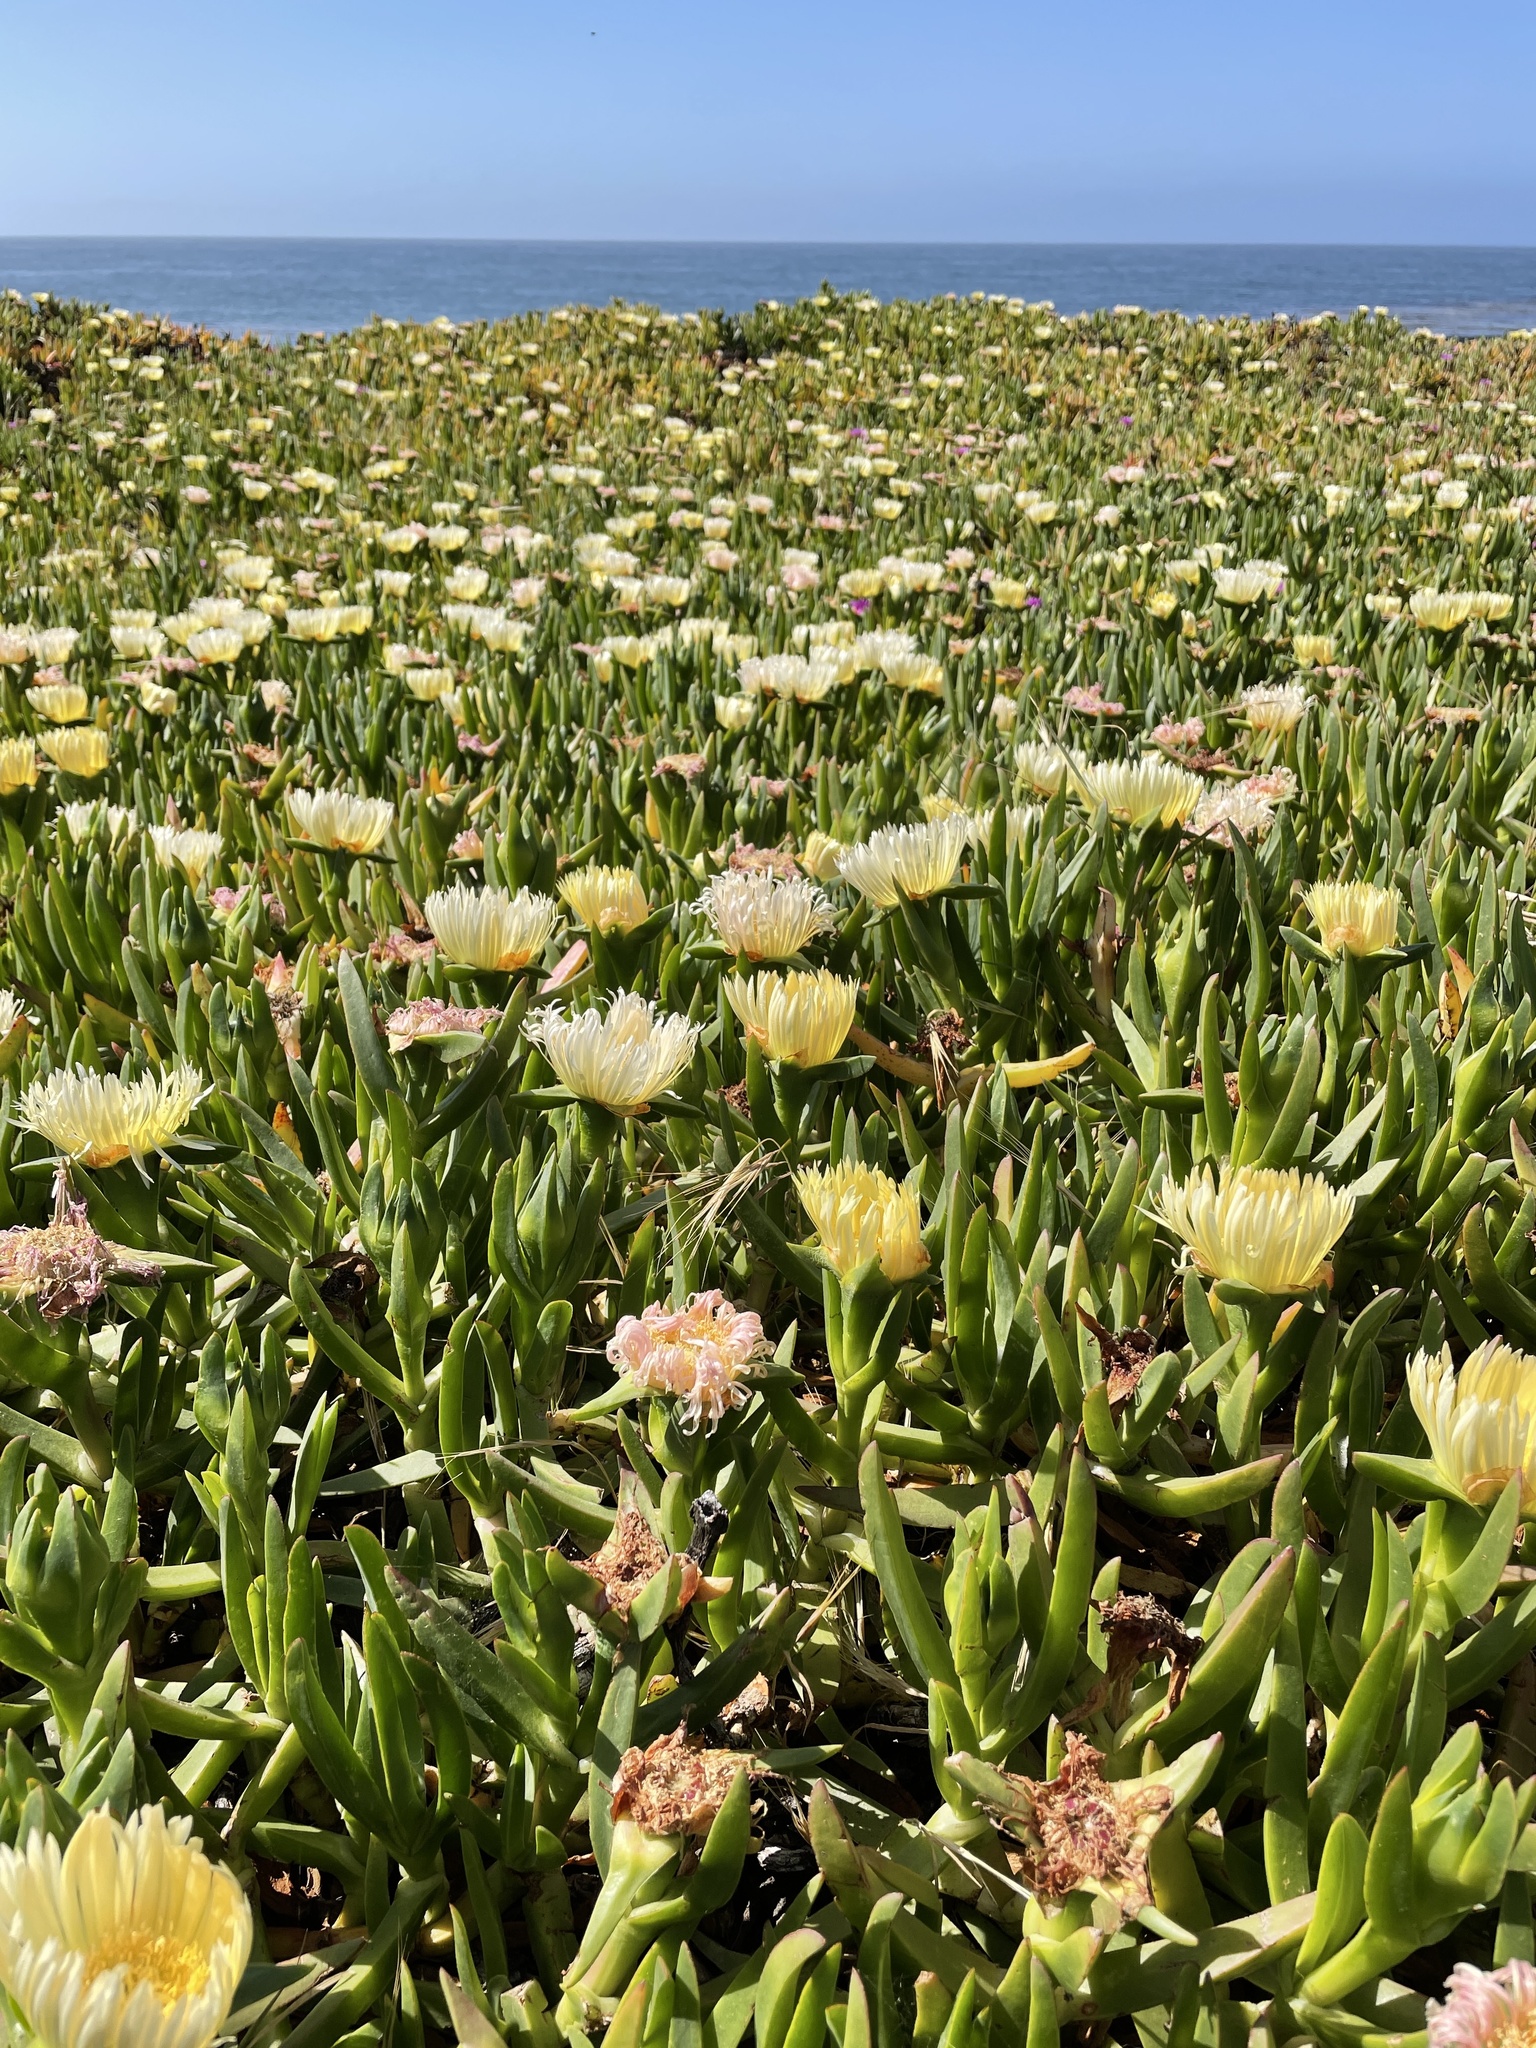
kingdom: Plantae
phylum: Tracheophyta
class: Magnoliopsida
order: Caryophyllales
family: Aizoaceae
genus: Carpobrotus
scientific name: Carpobrotus edulis
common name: Hottentot-fig
